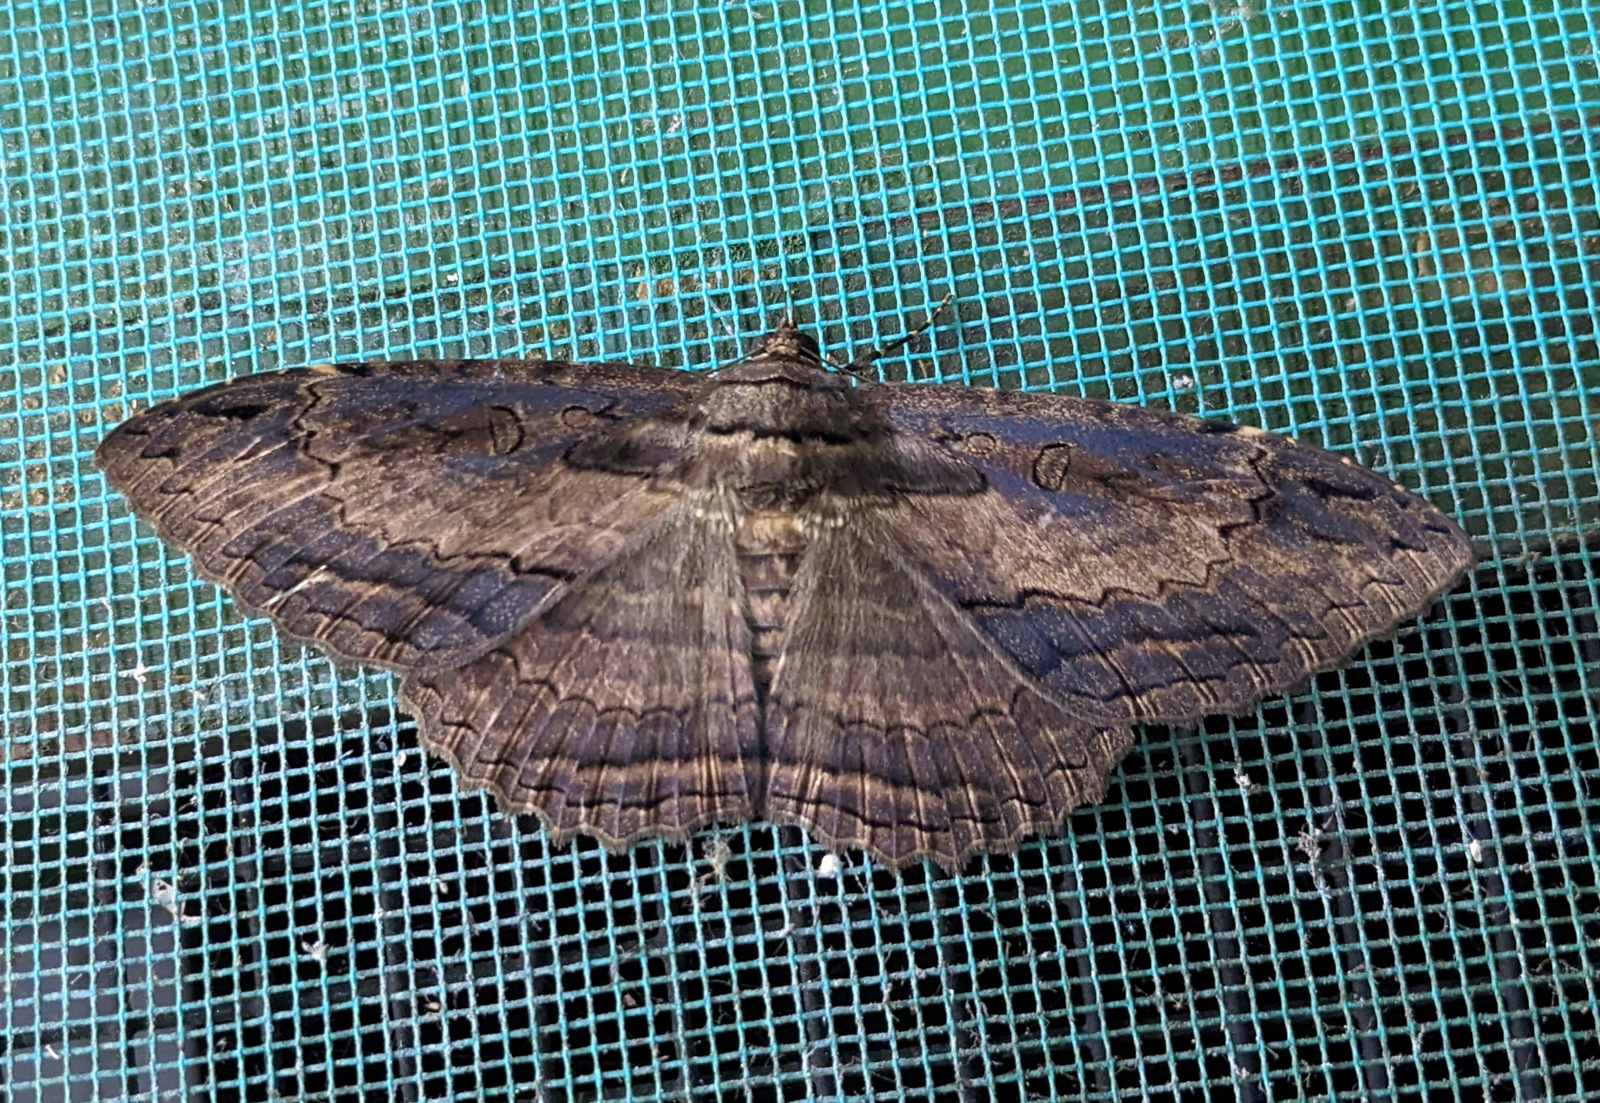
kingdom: Animalia
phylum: Arthropoda
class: Insecta
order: Lepidoptera
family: Erebidae
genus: Feigeria
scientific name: Feigeria buteo
